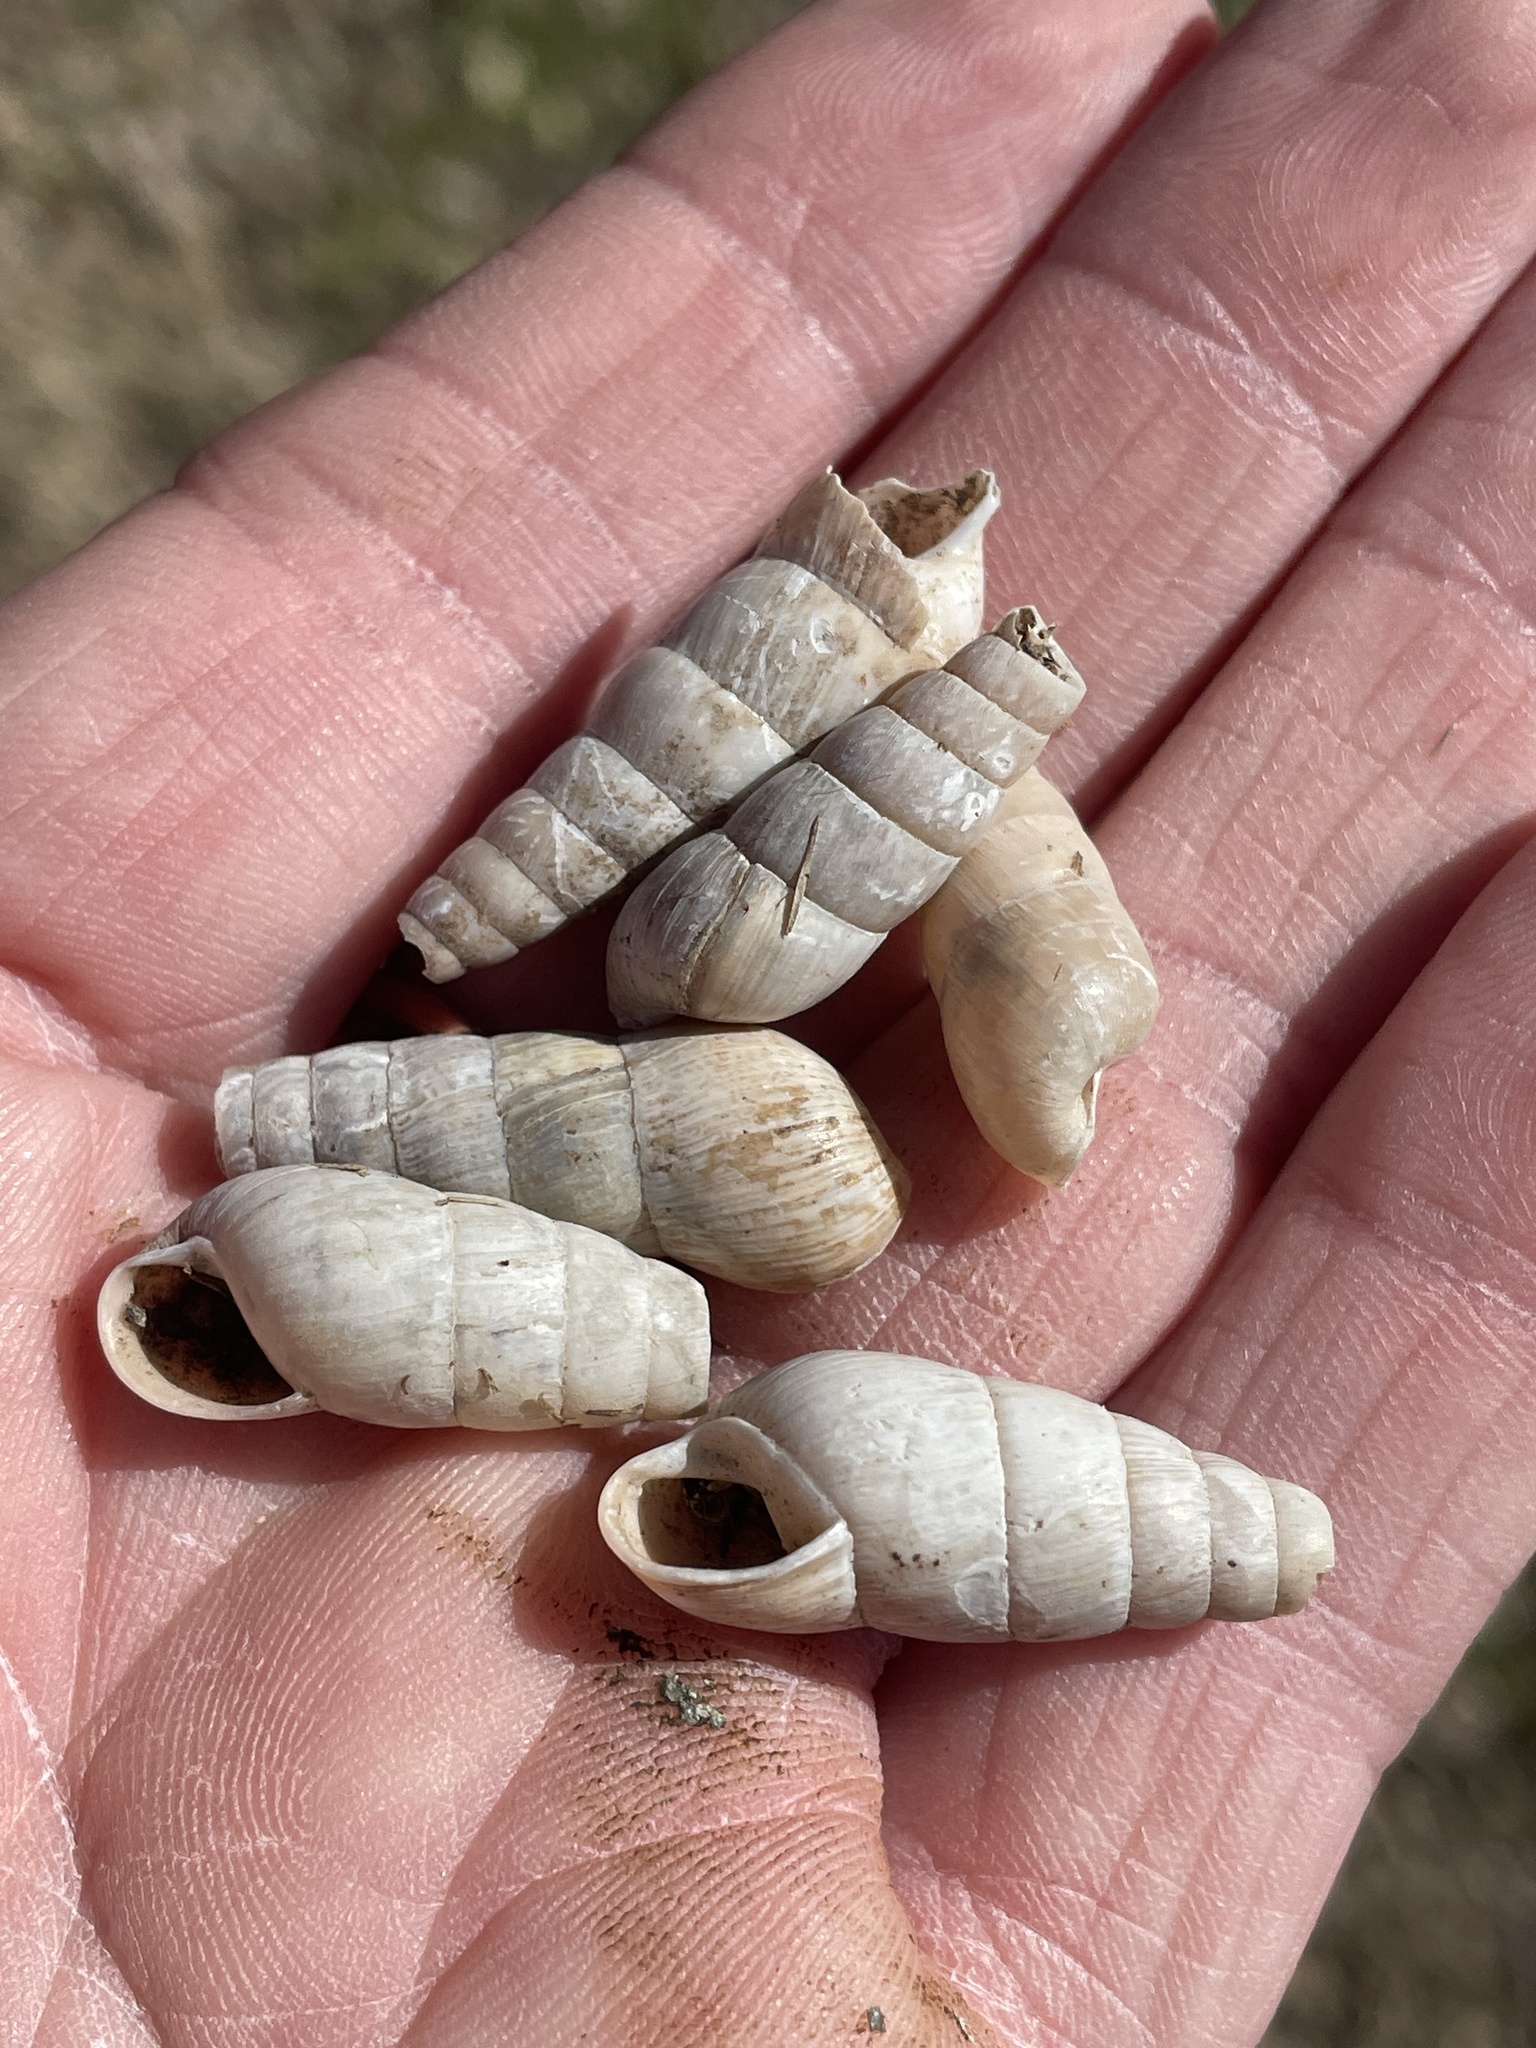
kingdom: Animalia
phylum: Mollusca
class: Gastropoda
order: Stylommatophora
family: Achatinidae
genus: Rumina
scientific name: Rumina decollata
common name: Decollate snail
